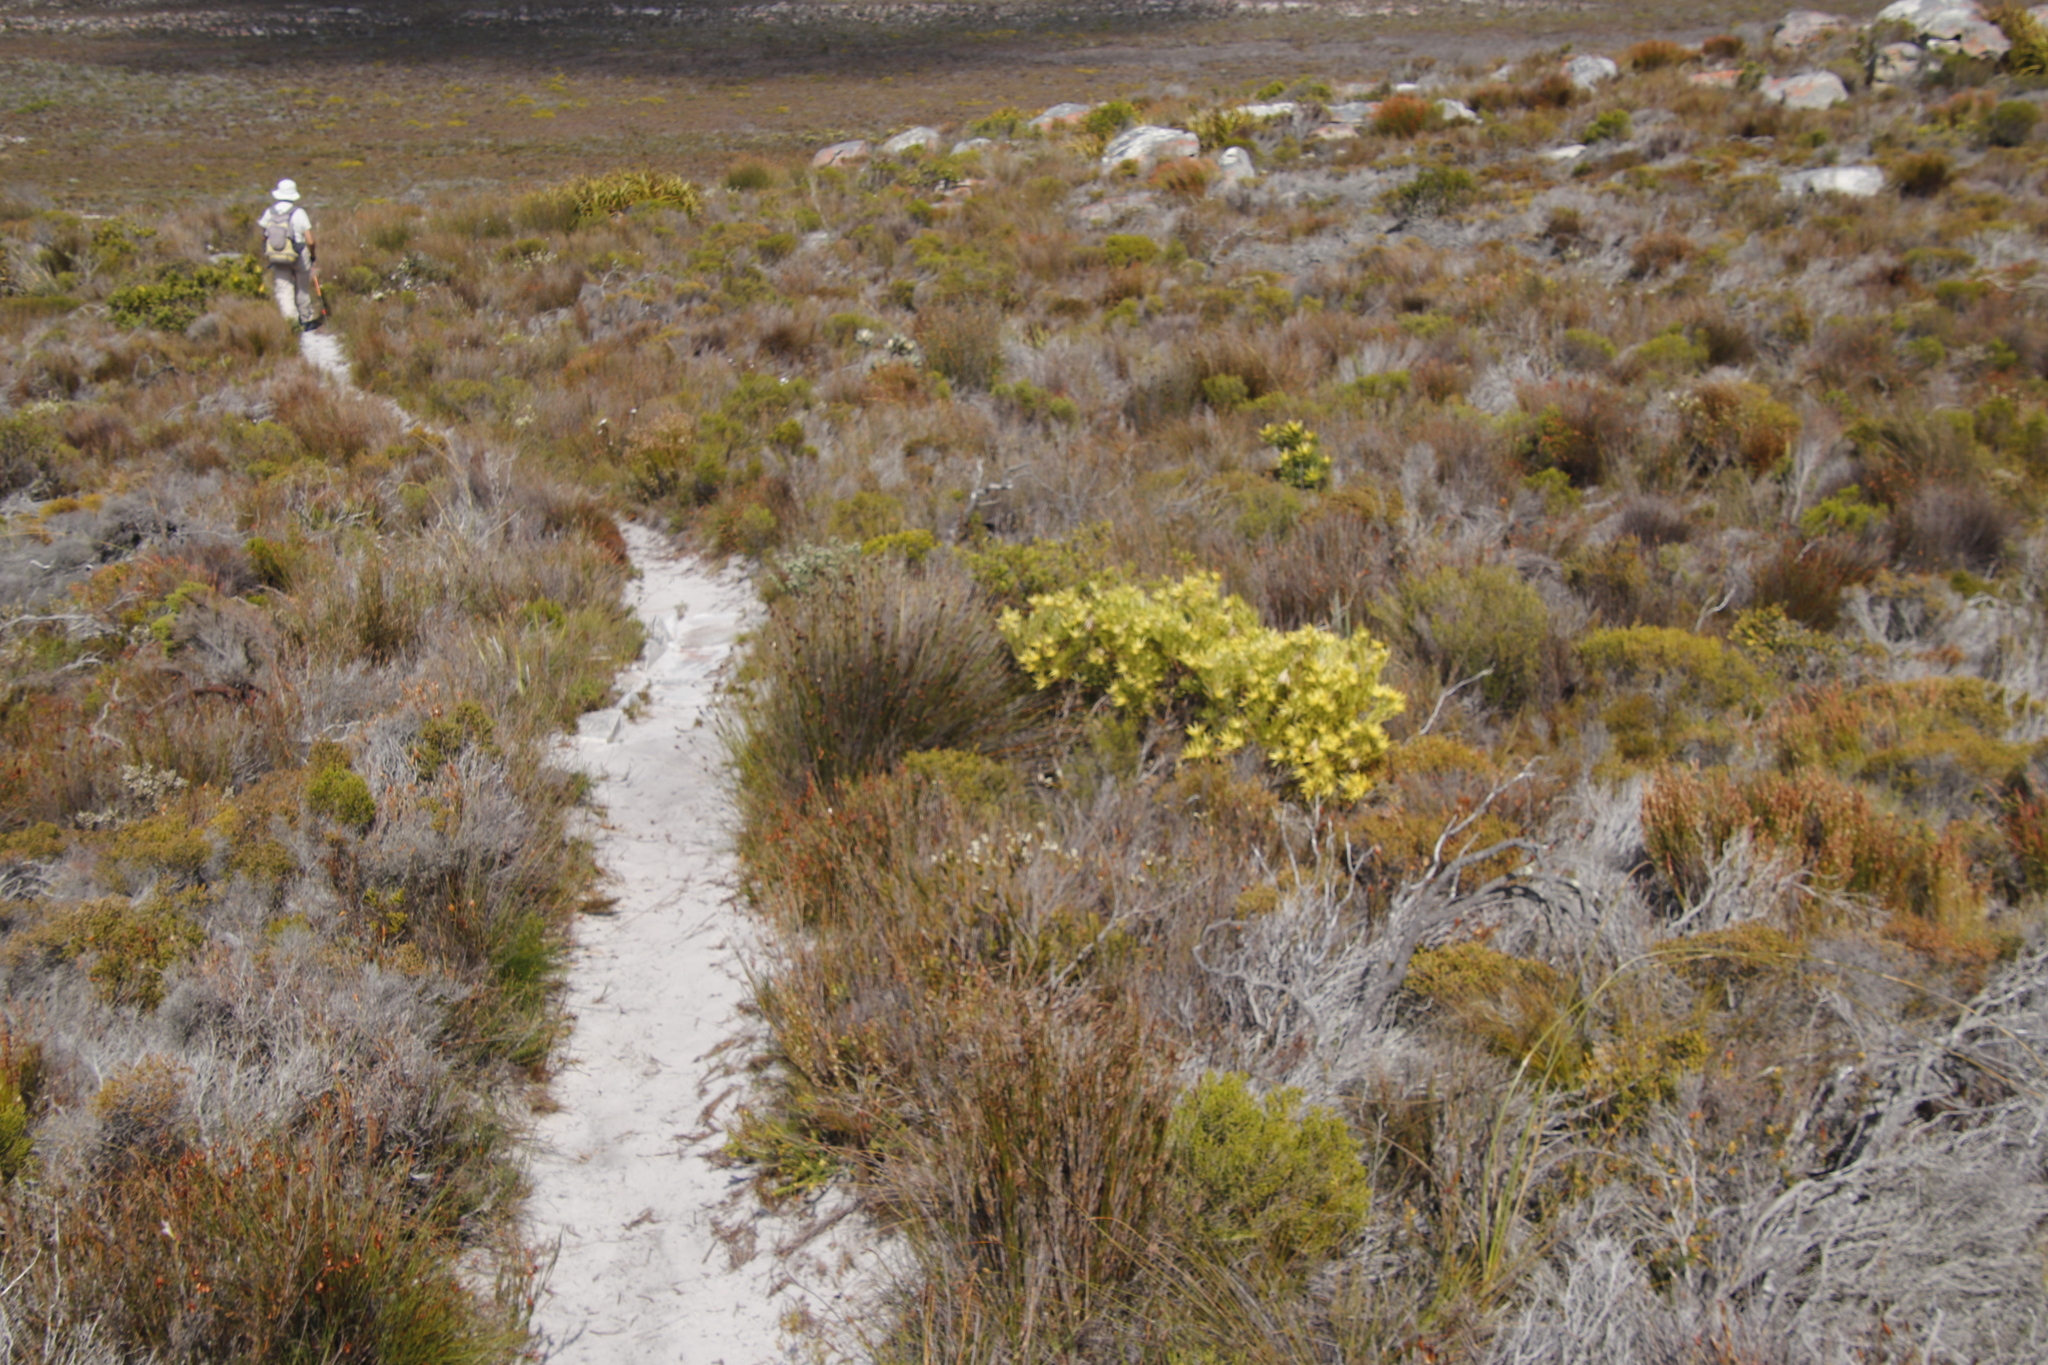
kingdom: Plantae
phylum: Tracheophyta
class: Magnoliopsida
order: Proteales
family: Proteaceae
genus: Leucadendron
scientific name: Leucadendron laureolum
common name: Golden sunshinebush
